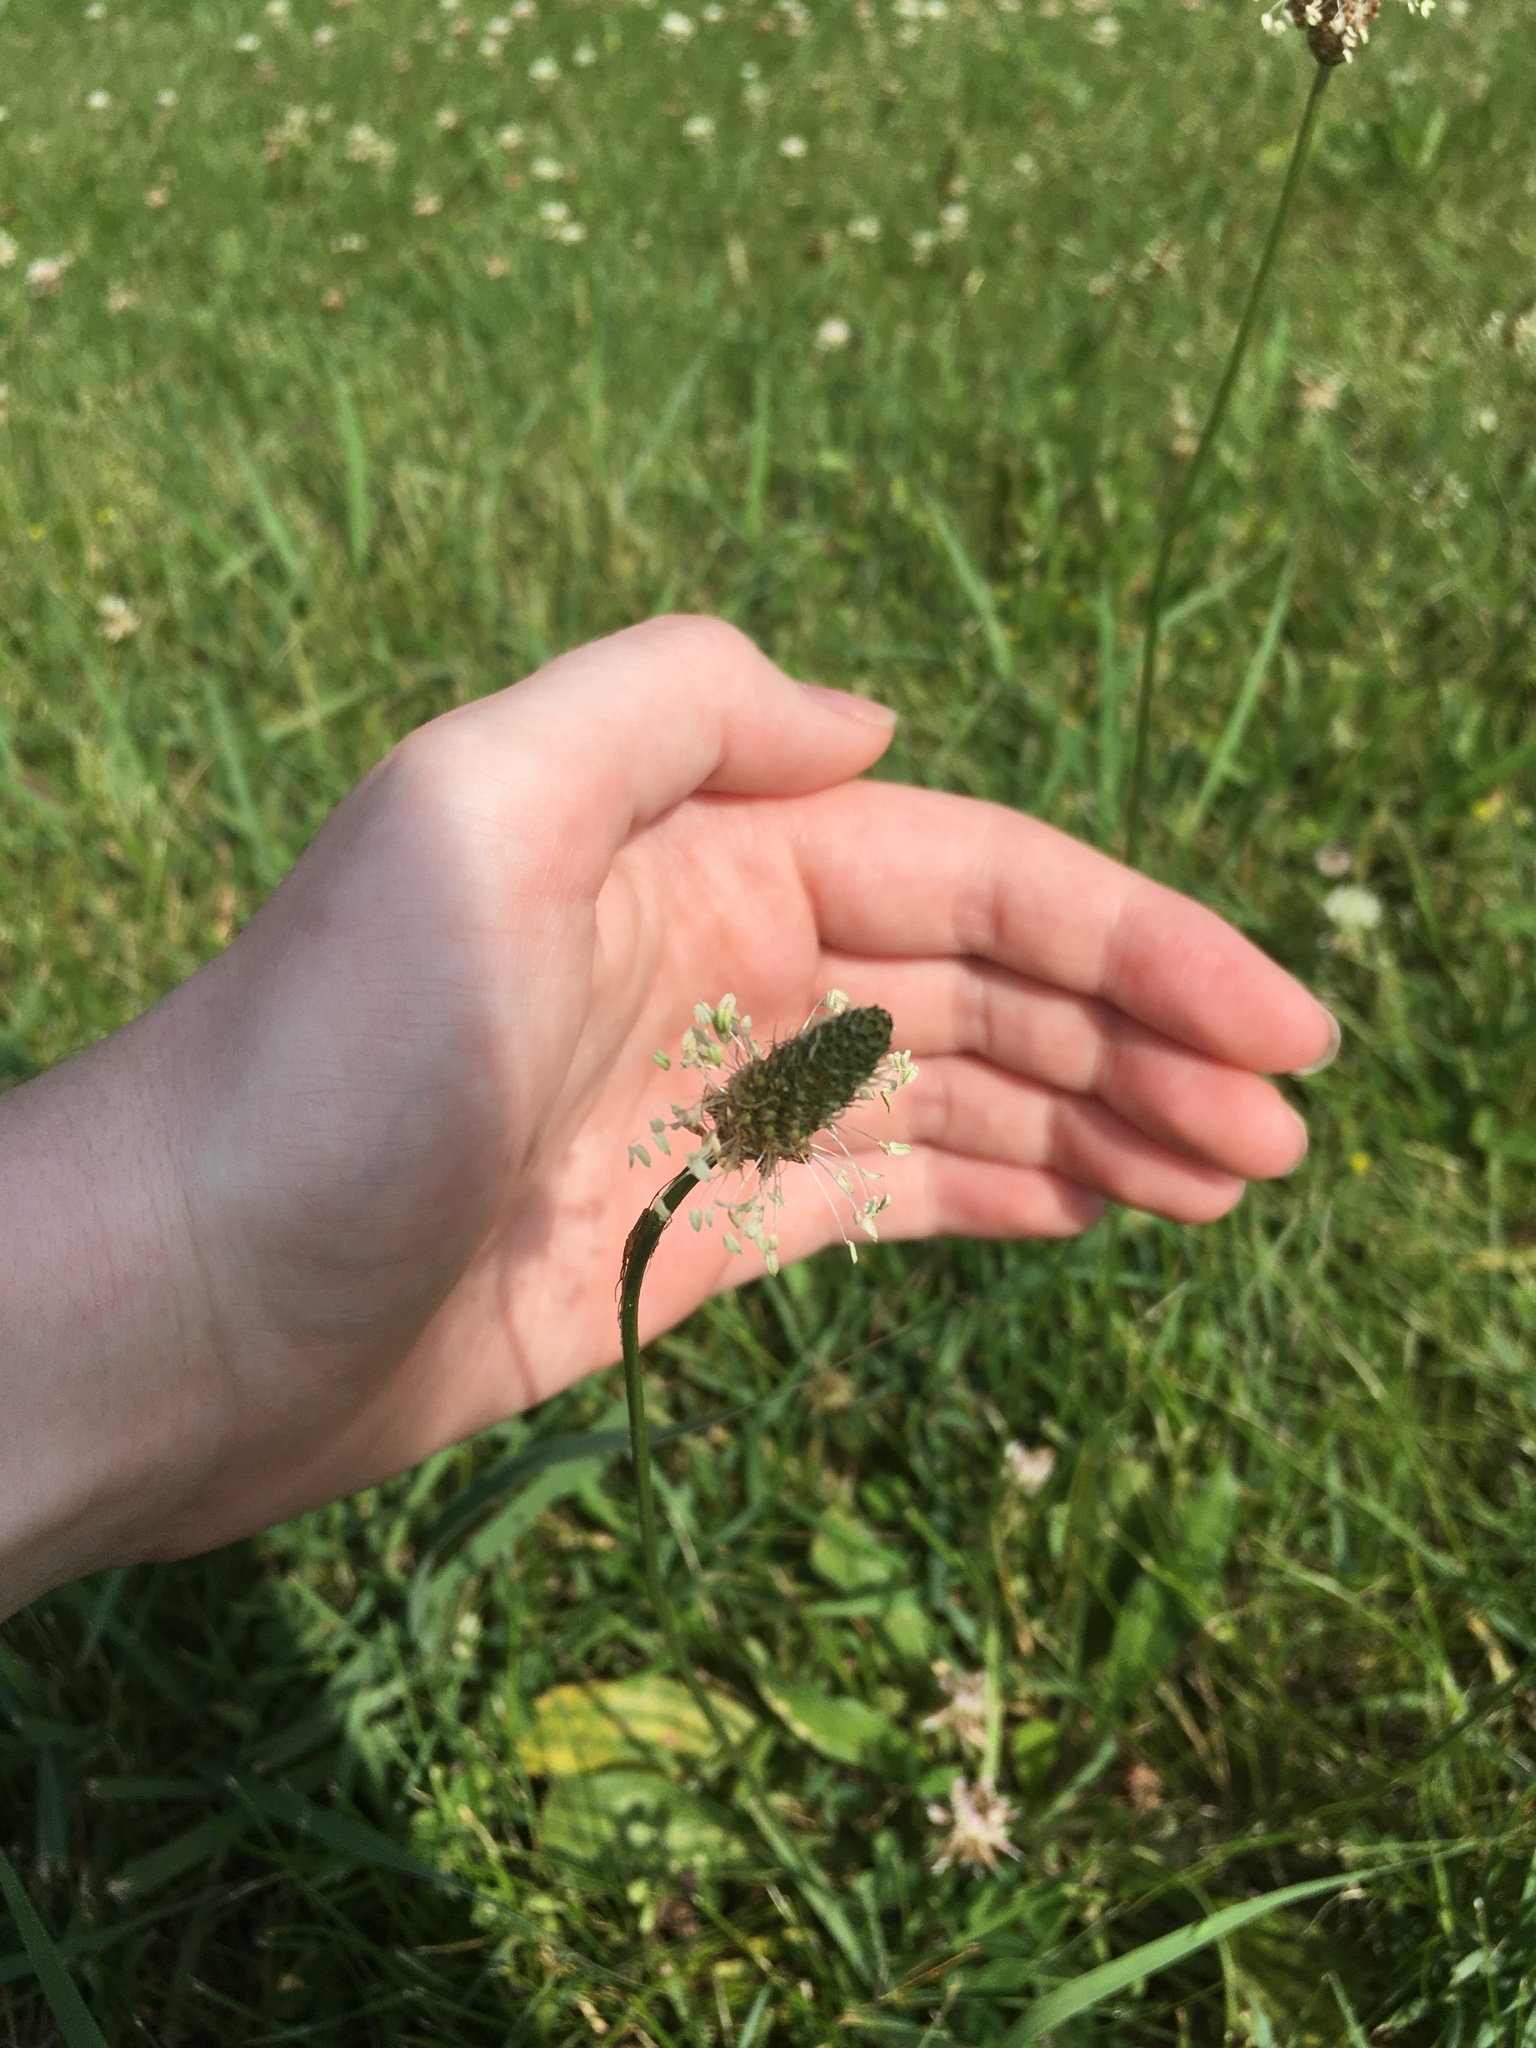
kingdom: Plantae
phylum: Tracheophyta
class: Magnoliopsida
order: Lamiales
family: Plantaginaceae
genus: Plantago
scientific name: Plantago lanceolata
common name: Ribwort plantain
